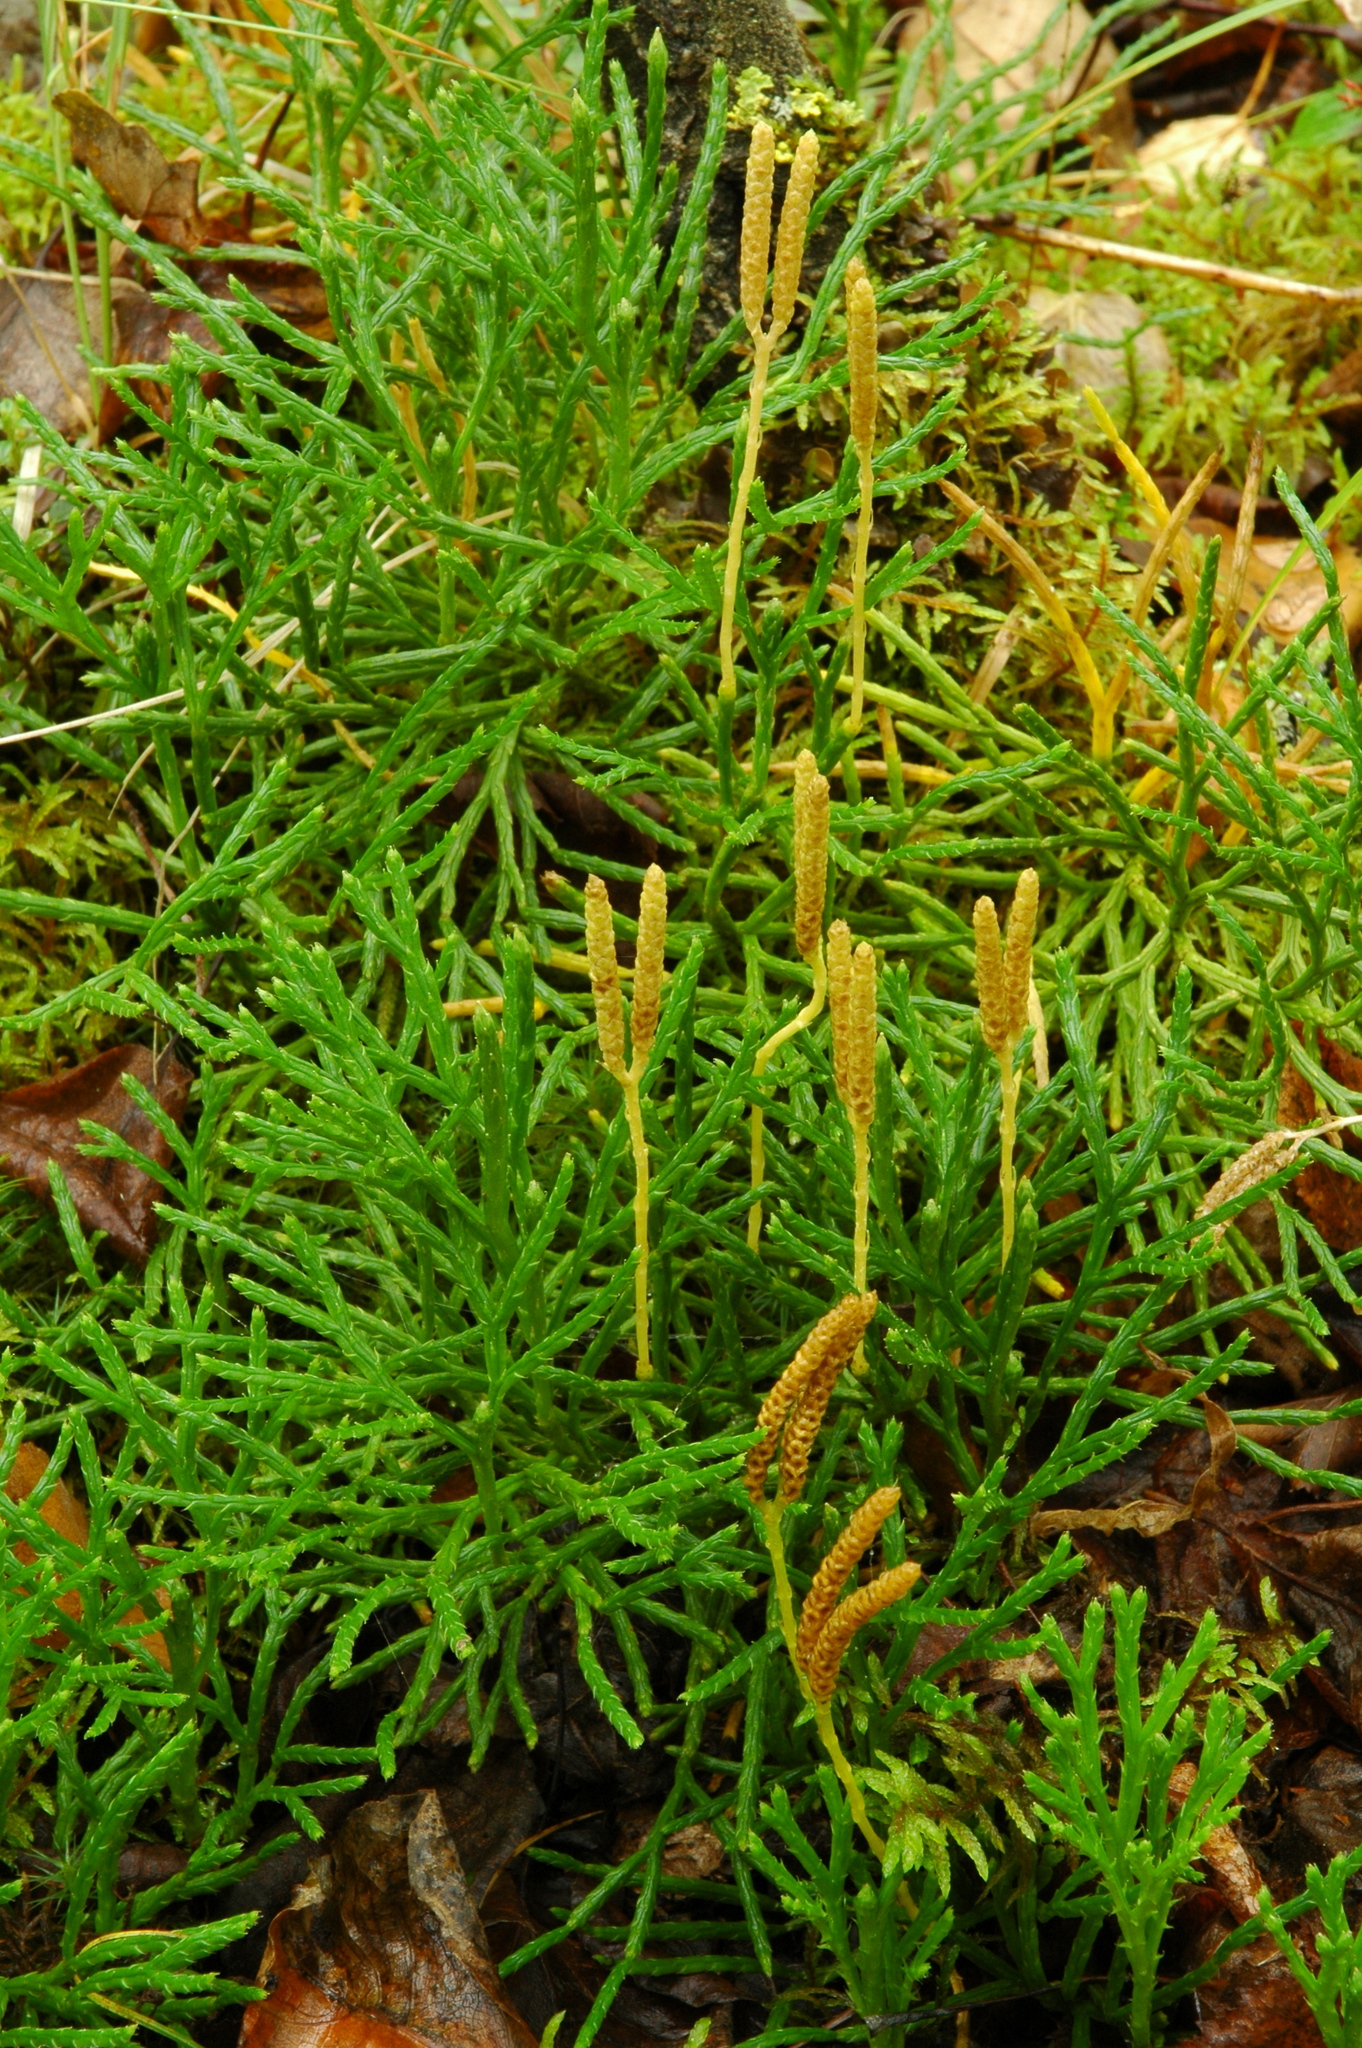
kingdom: Plantae
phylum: Tracheophyta
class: Lycopodiopsida
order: Lycopodiales
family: Lycopodiaceae
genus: Diphasiastrum
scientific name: Diphasiastrum complanatum
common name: Northern running-pine
